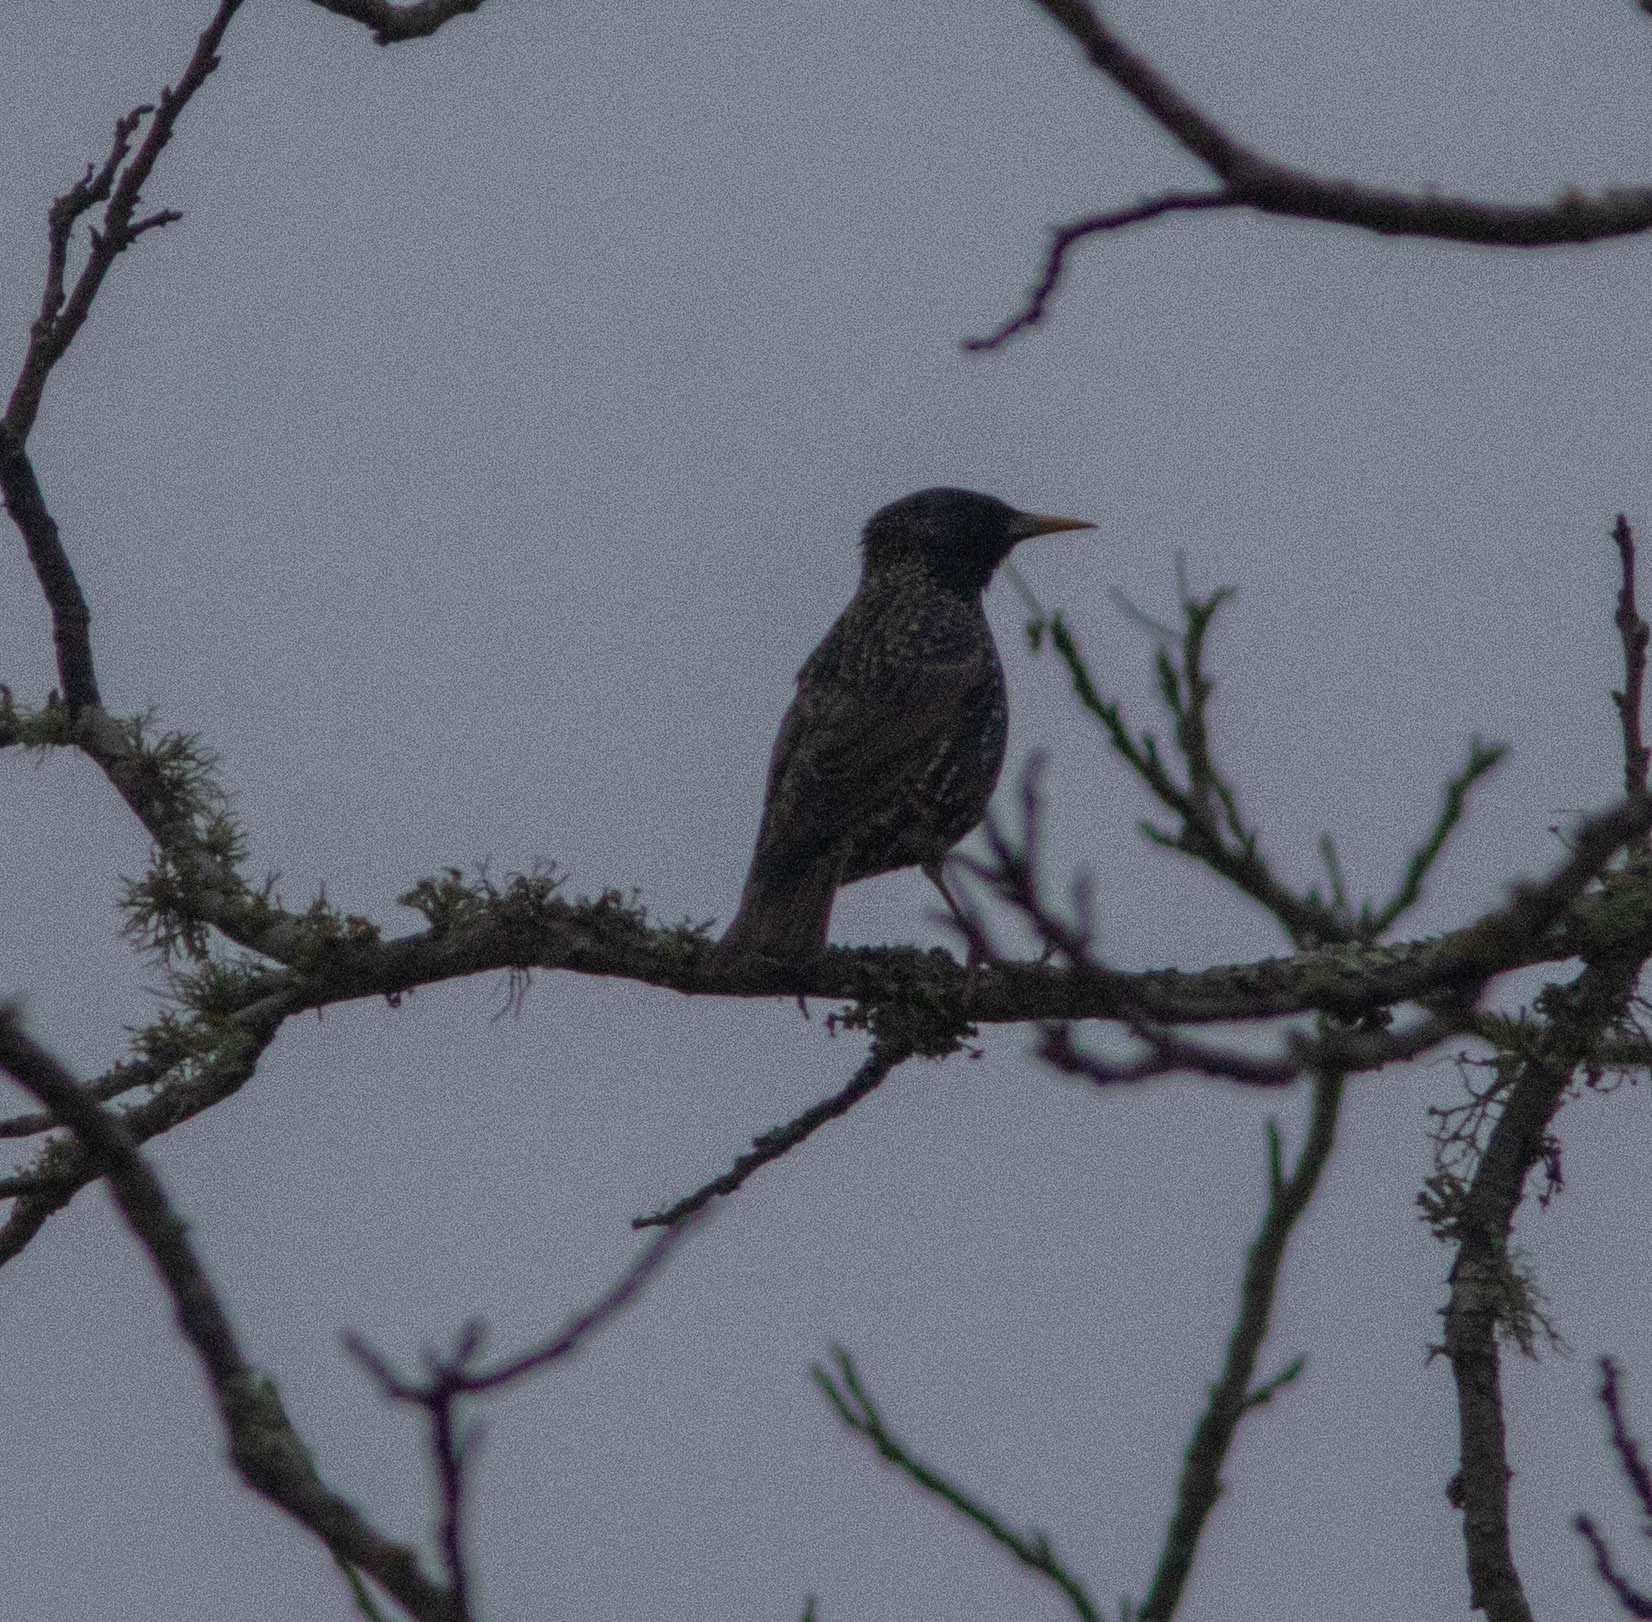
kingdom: Animalia
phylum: Chordata
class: Aves
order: Passeriformes
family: Sturnidae
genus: Sturnus
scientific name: Sturnus vulgaris
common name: Common starling
